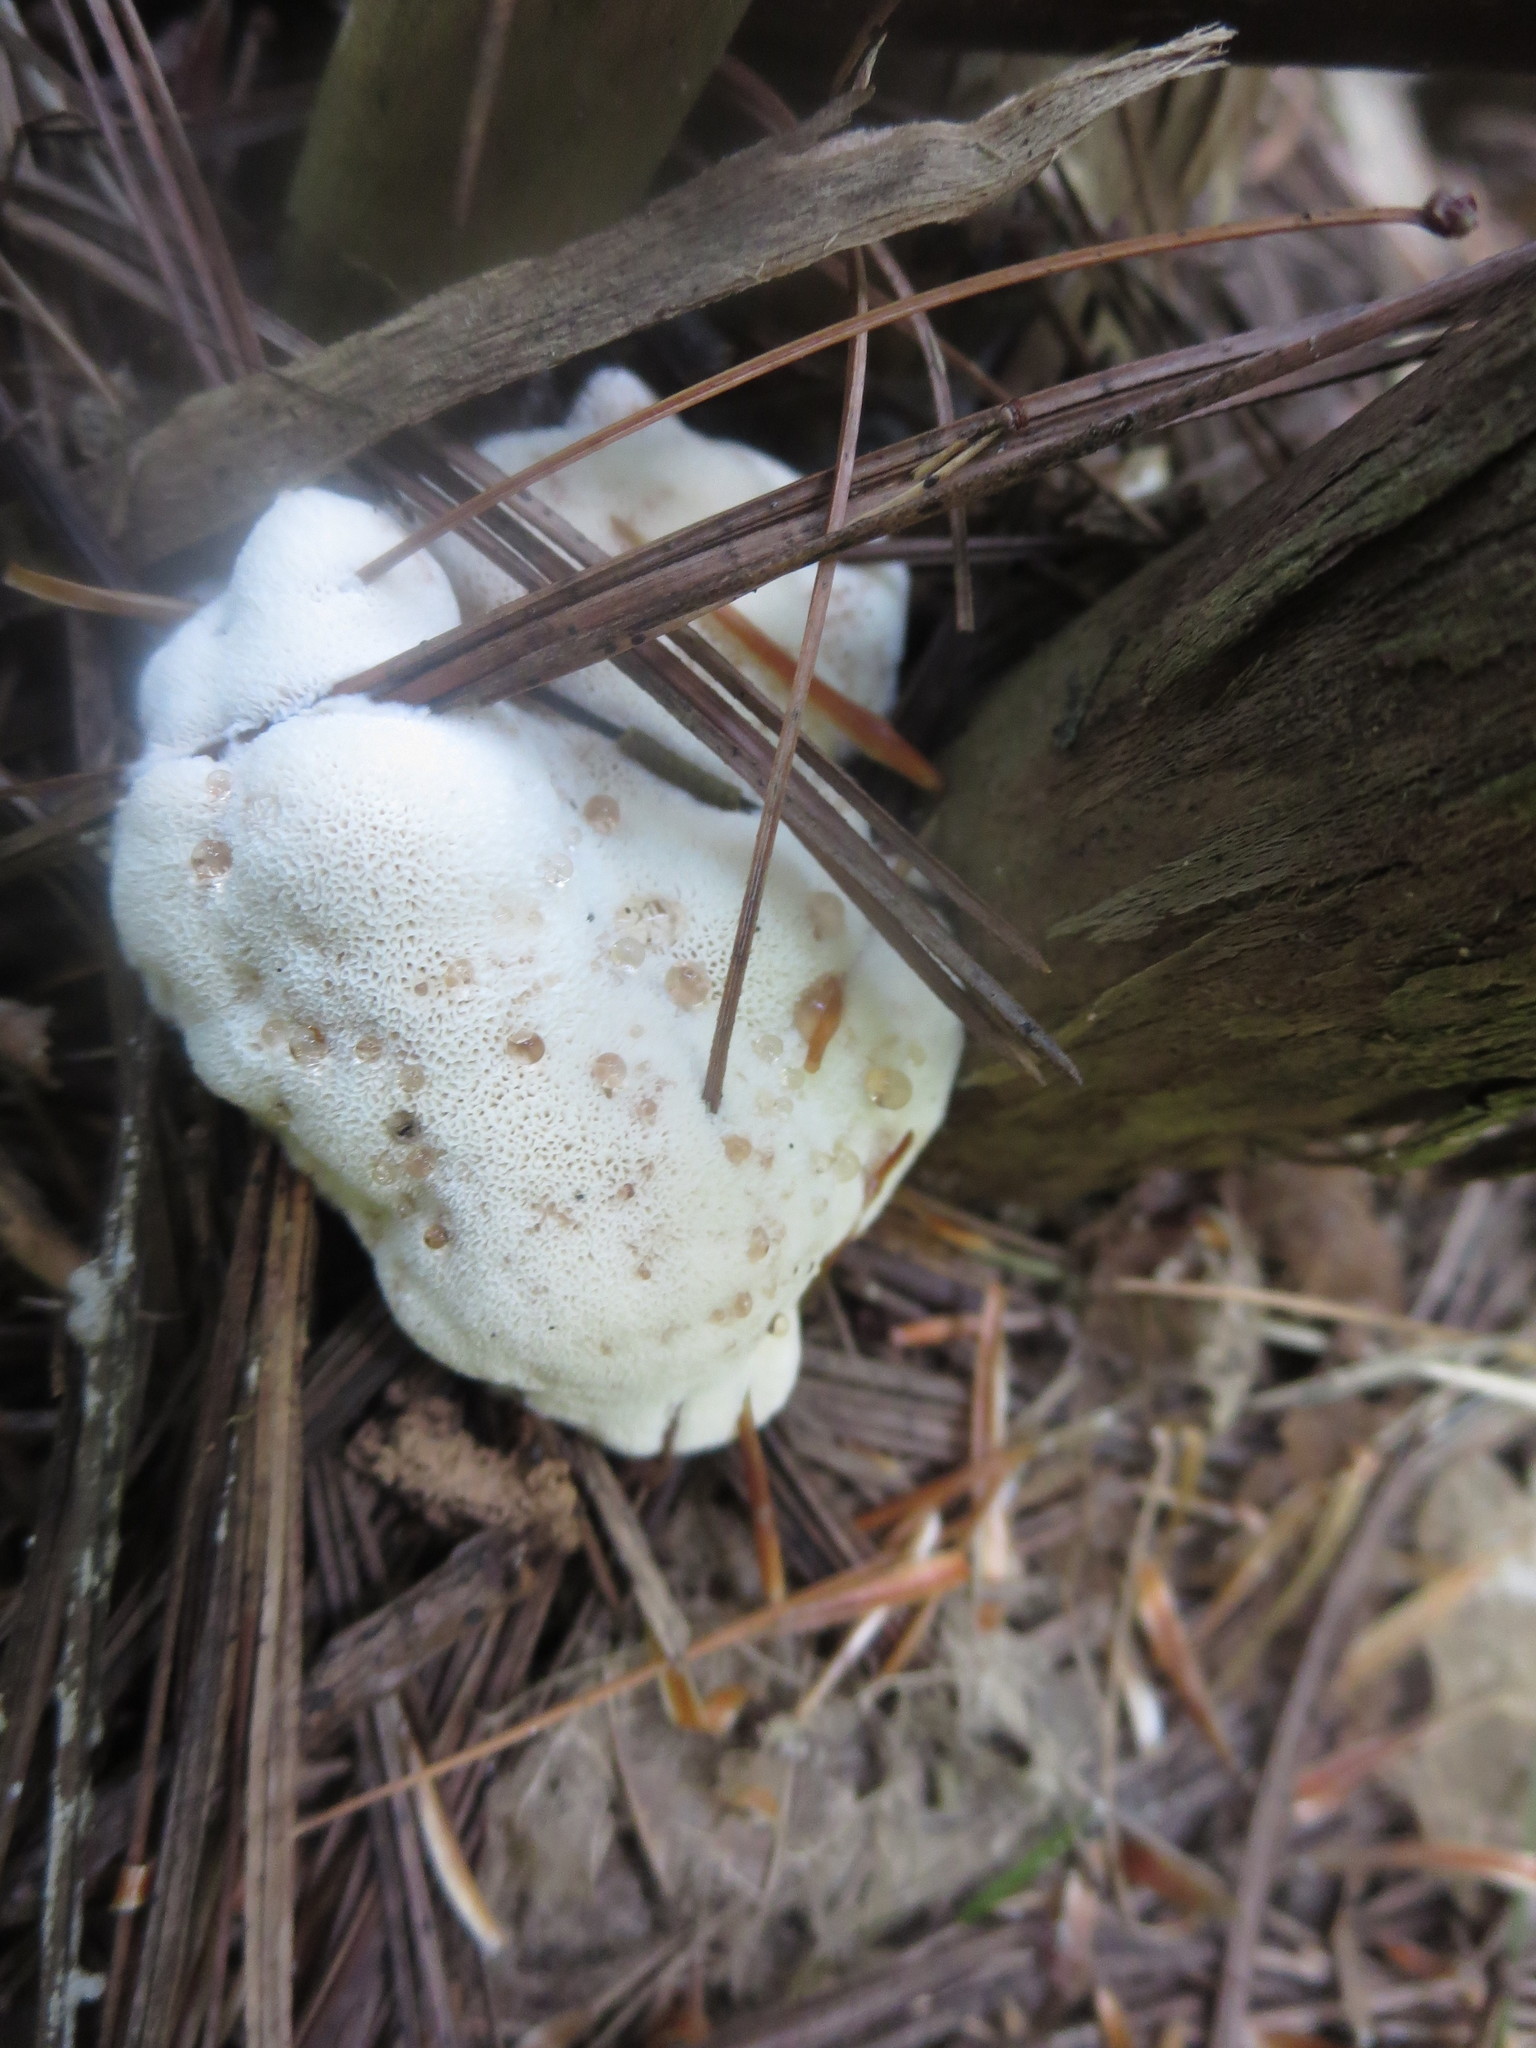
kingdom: Fungi
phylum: Basidiomycota
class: Agaricomycetes
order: Polyporales
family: Podoscyphaceae
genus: Abortiporus
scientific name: Abortiporus biennis
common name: Blushing rosette
